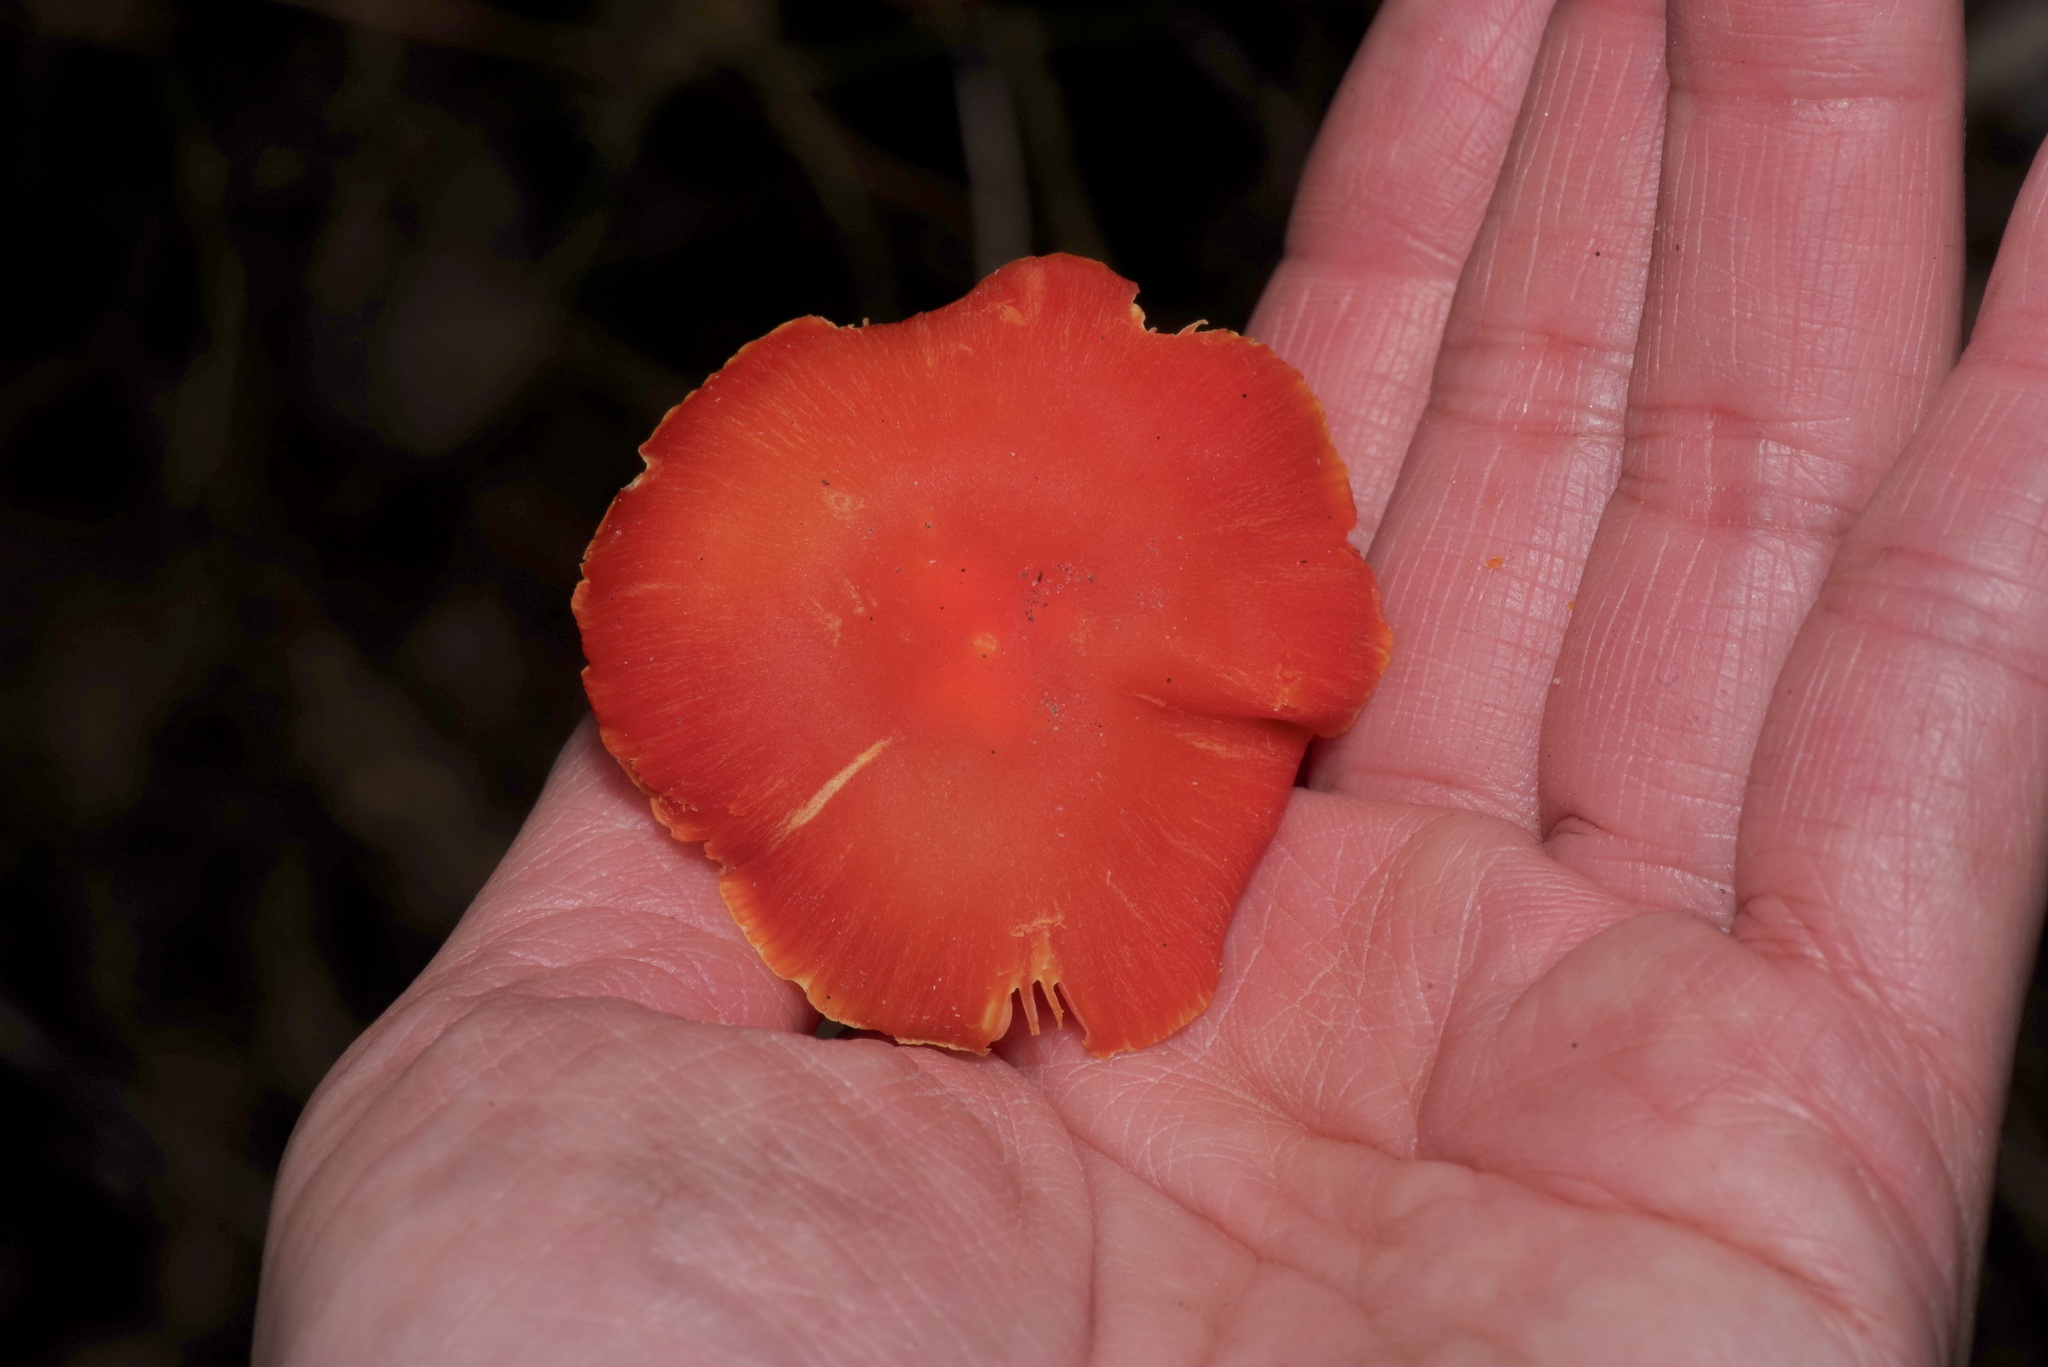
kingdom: Fungi
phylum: Basidiomycota
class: Agaricomycetes
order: Agaricales
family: Hygrophoraceae
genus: Hygrocybe
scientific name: Hygrocybe miniata
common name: Vermilion waxcap
